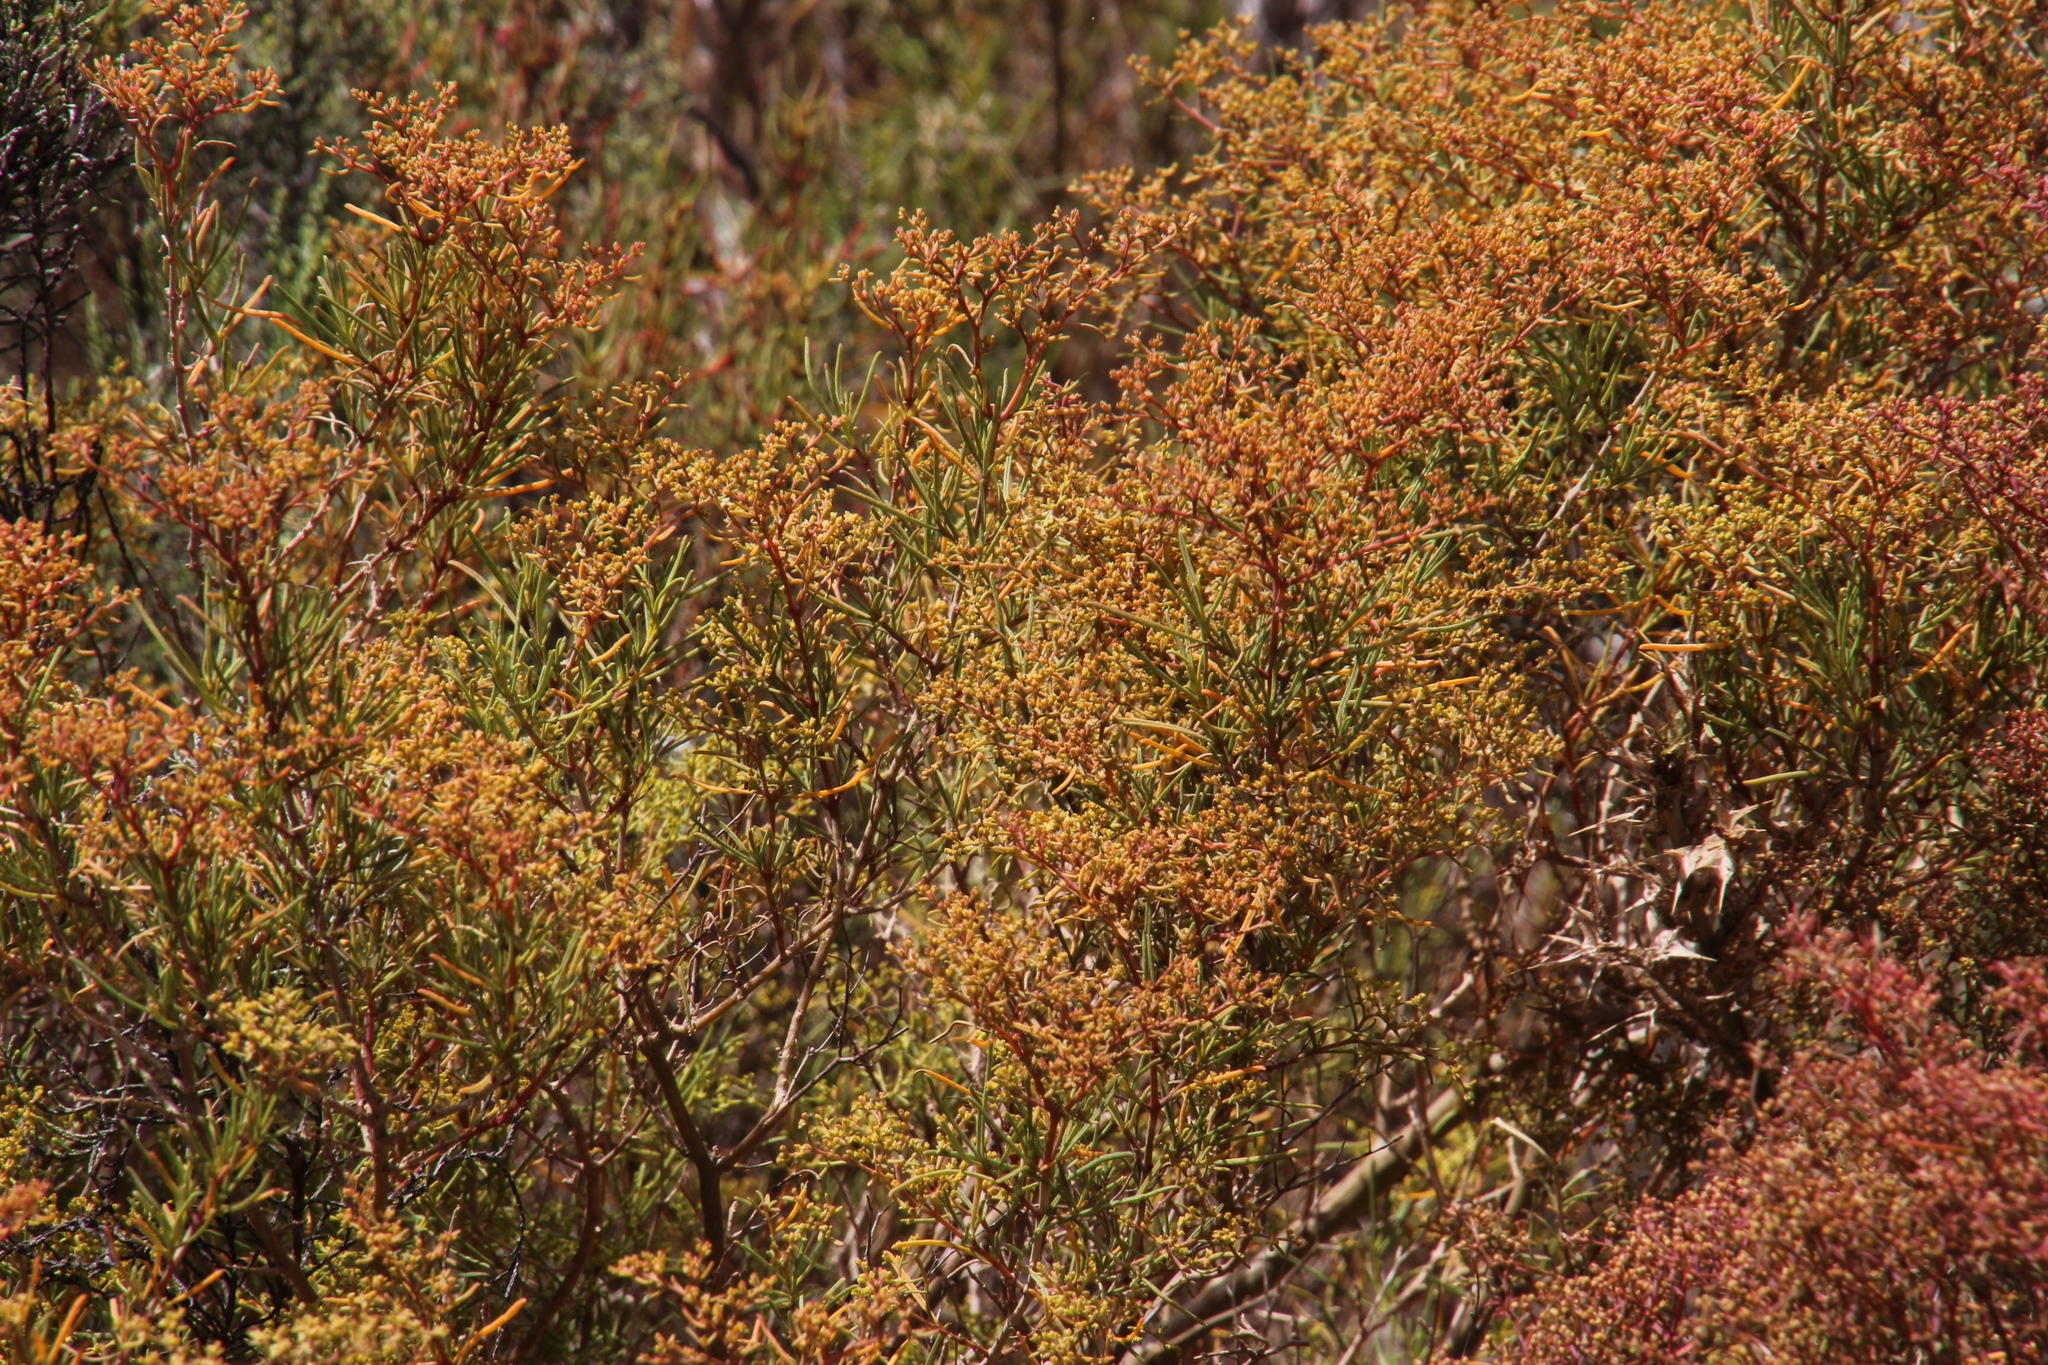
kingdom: Plantae
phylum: Tracheophyta
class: Magnoliopsida
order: Caryophyllales
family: Aizoaceae
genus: Aizoon
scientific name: Aizoon africanum
